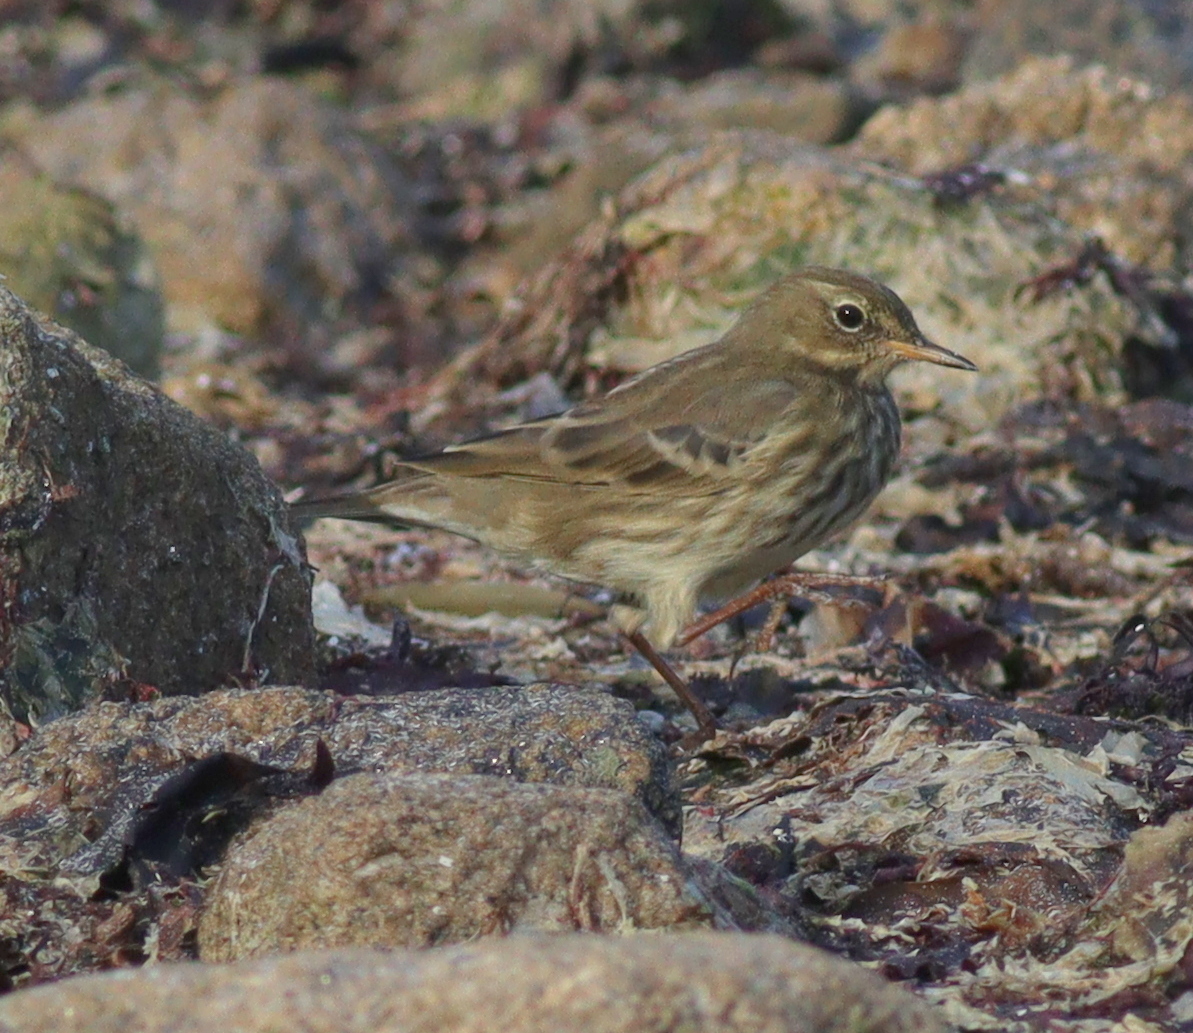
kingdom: Animalia
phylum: Chordata
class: Aves
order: Passeriformes
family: Motacillidae
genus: Anthus
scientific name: Anthus petrosus
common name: Eurasian rock pipit
